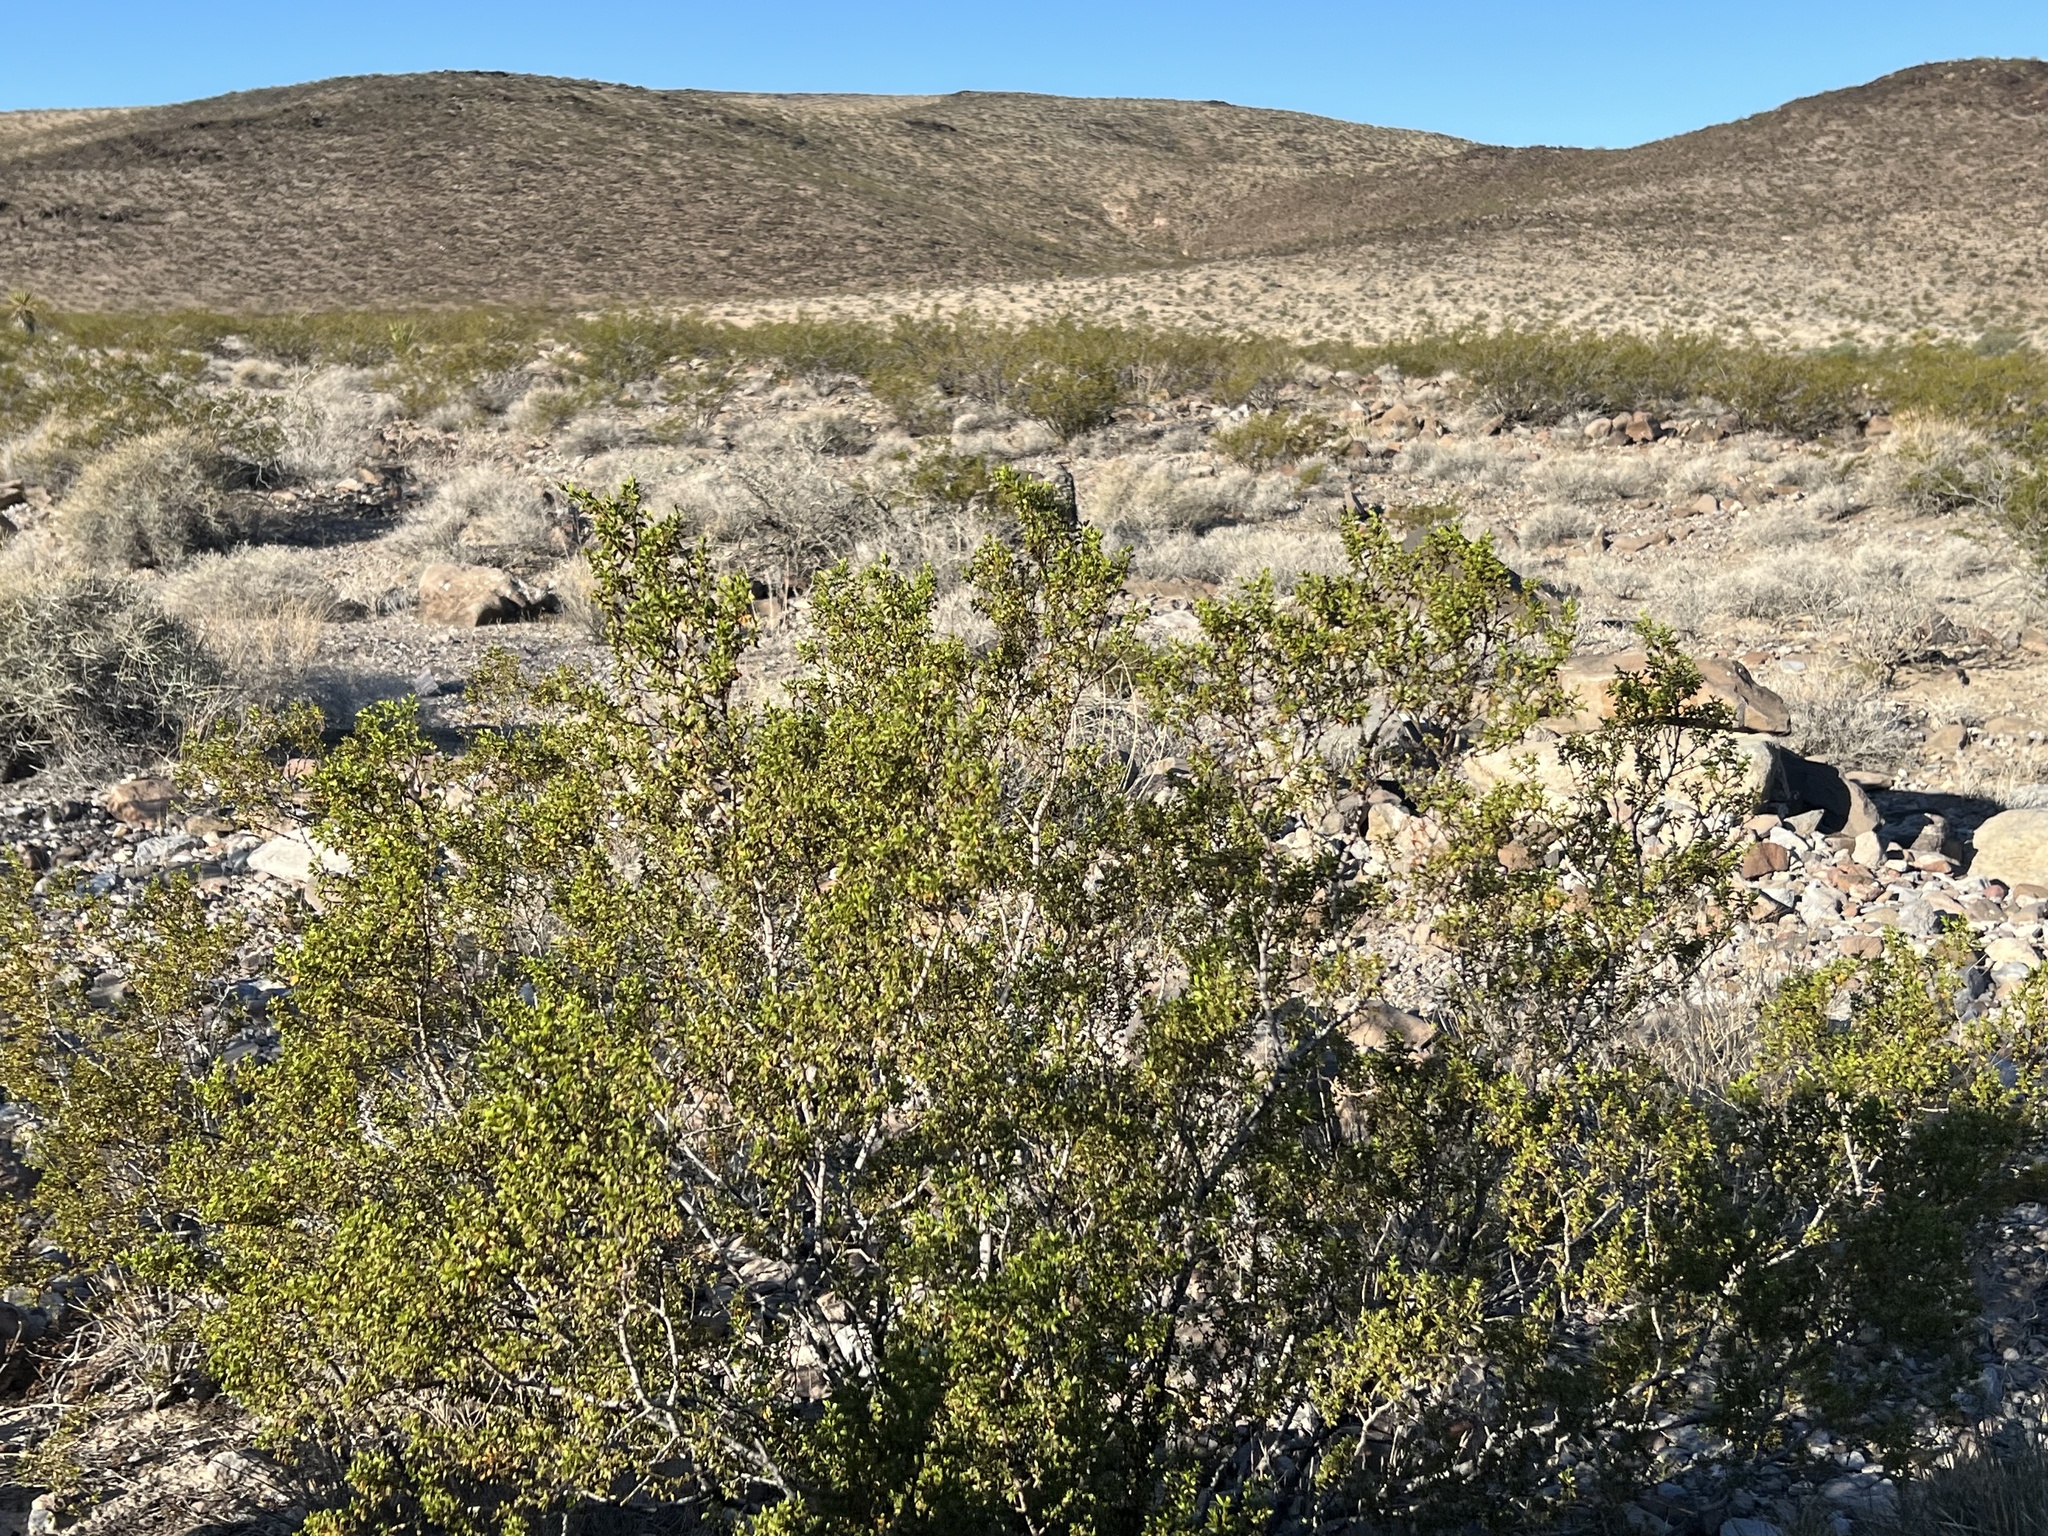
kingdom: Plantae
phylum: Tracheophyta
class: Magnoliopsida
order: Zygophyllales
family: Zygophyllaceae
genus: Larrea
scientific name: Larrea tridentata
